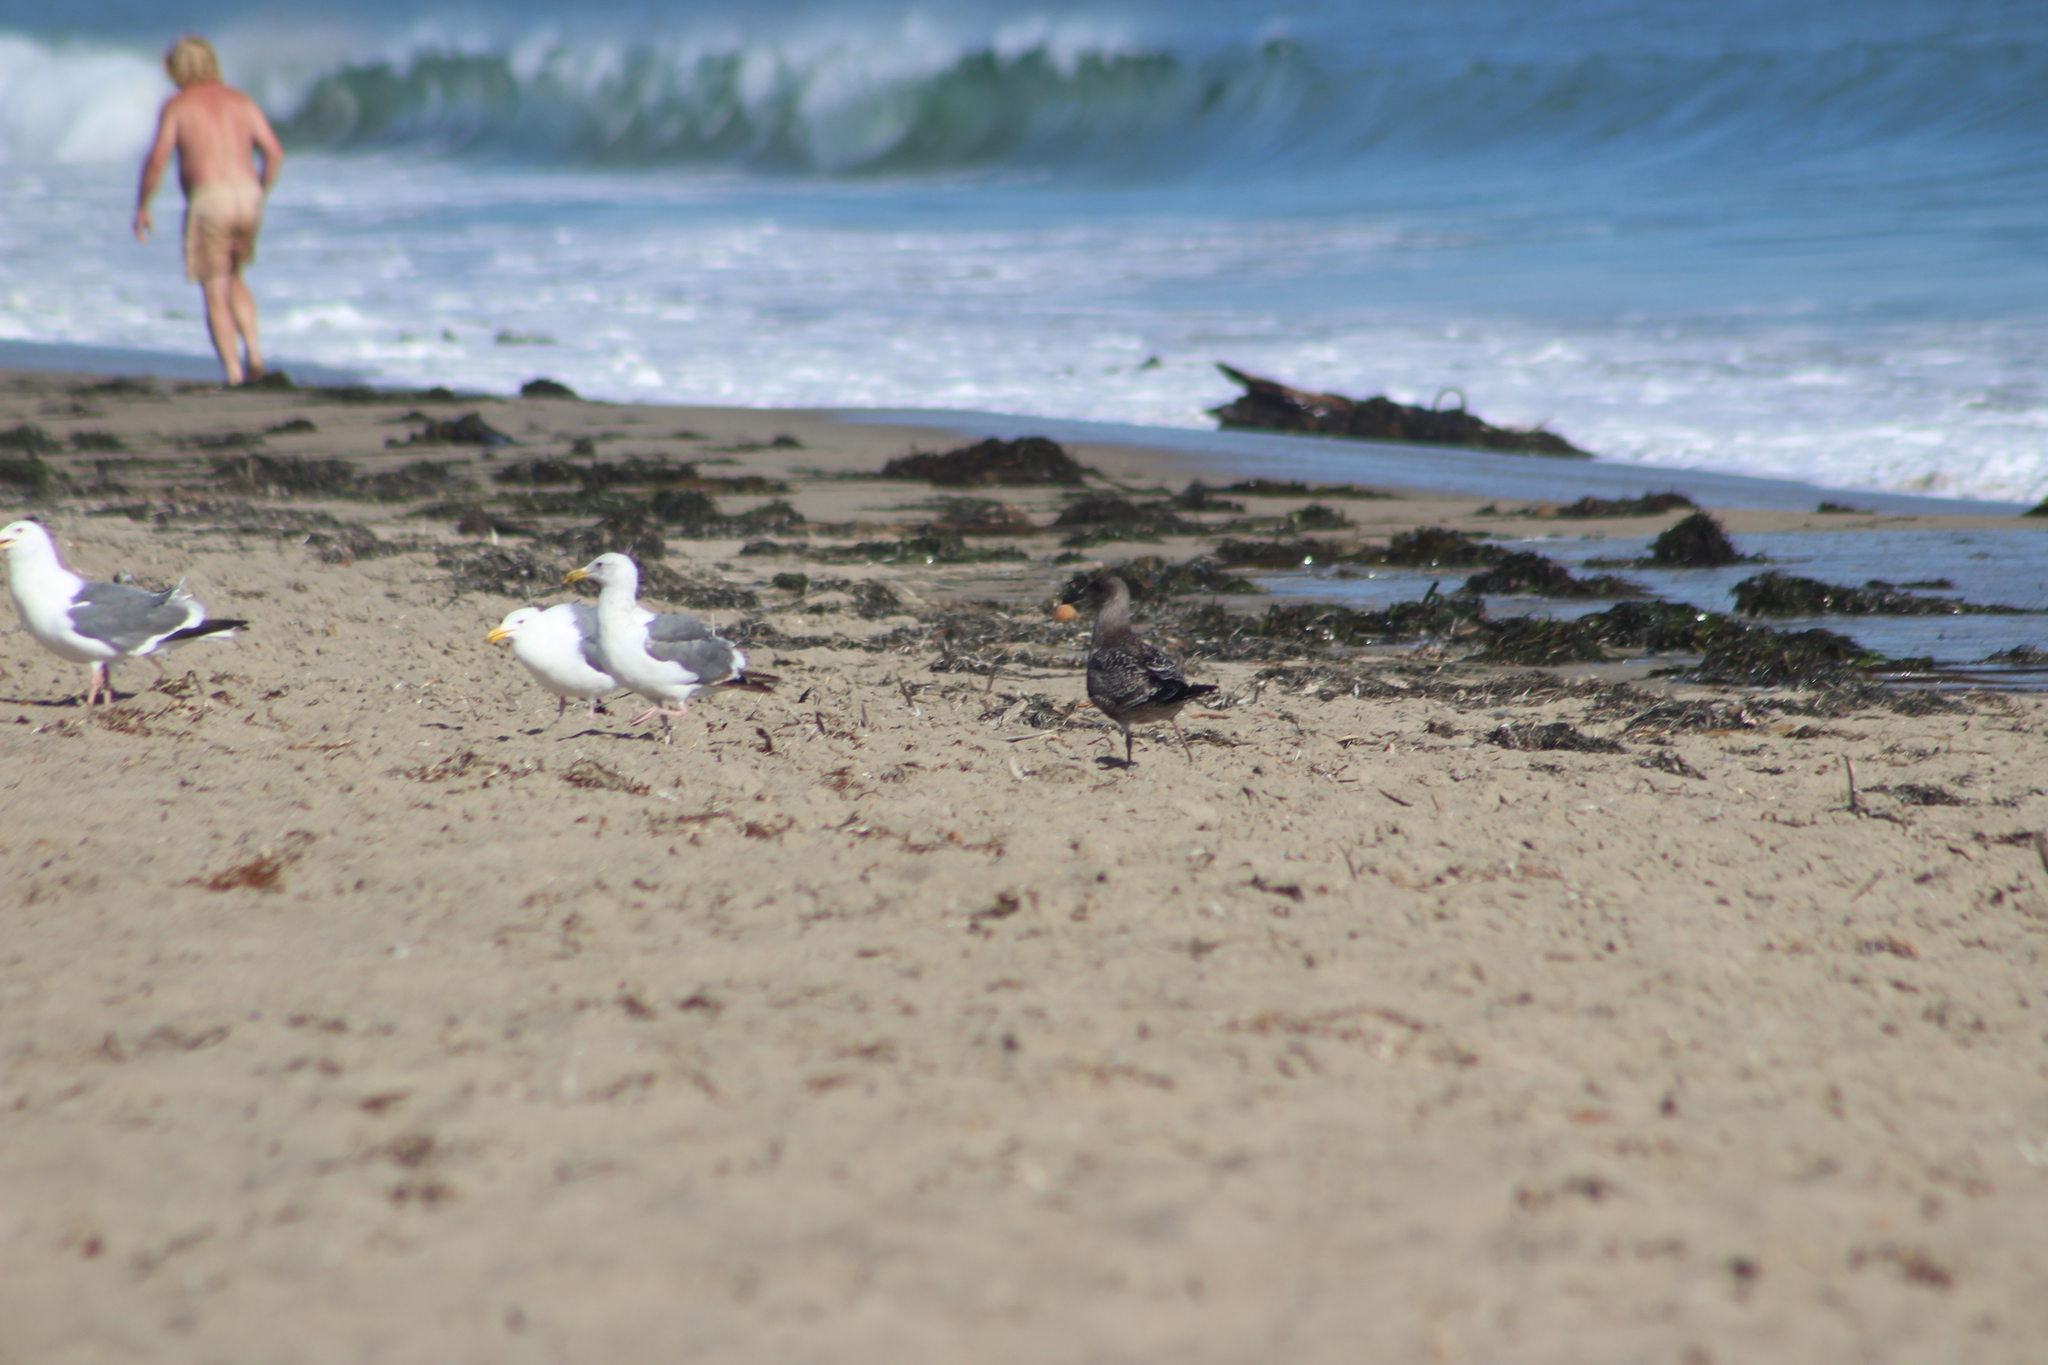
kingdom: Animalia
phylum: Chordata
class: Aves
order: Charadriiformes
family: Laridae
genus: Larus
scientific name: Larus occidentalis
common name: Western gull
